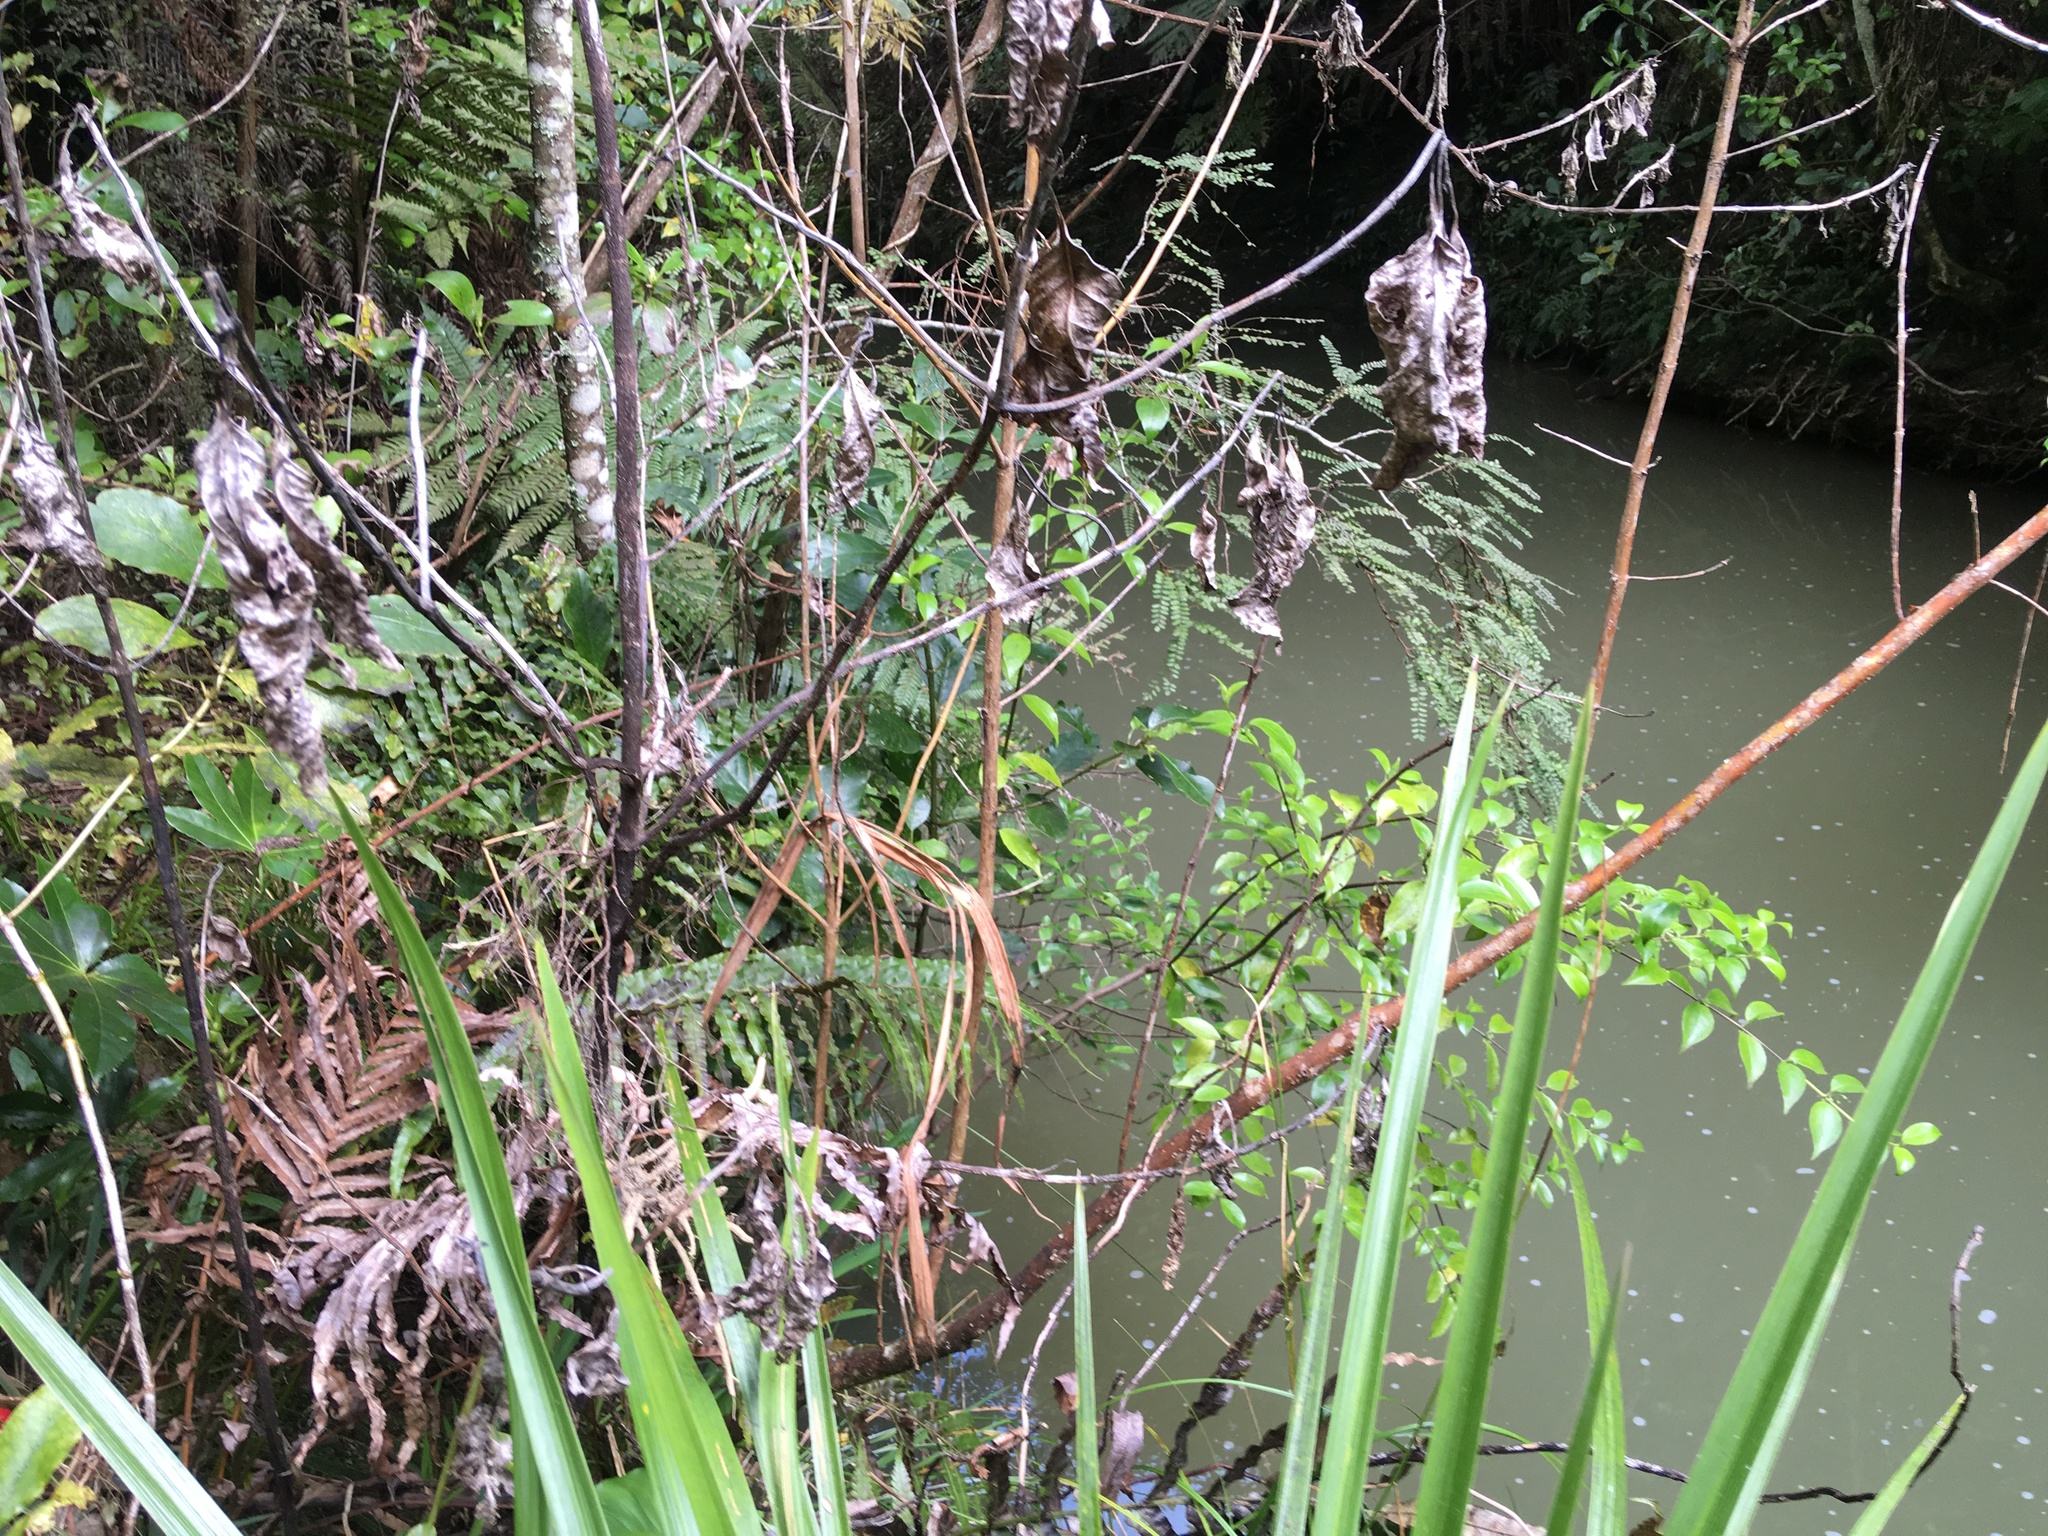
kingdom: Plantae
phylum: Tracheophyta
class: Magnoliopsida
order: Apiales
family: Araliaceae
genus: Fatsia
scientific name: Fatsia japonica
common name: Fatsia
